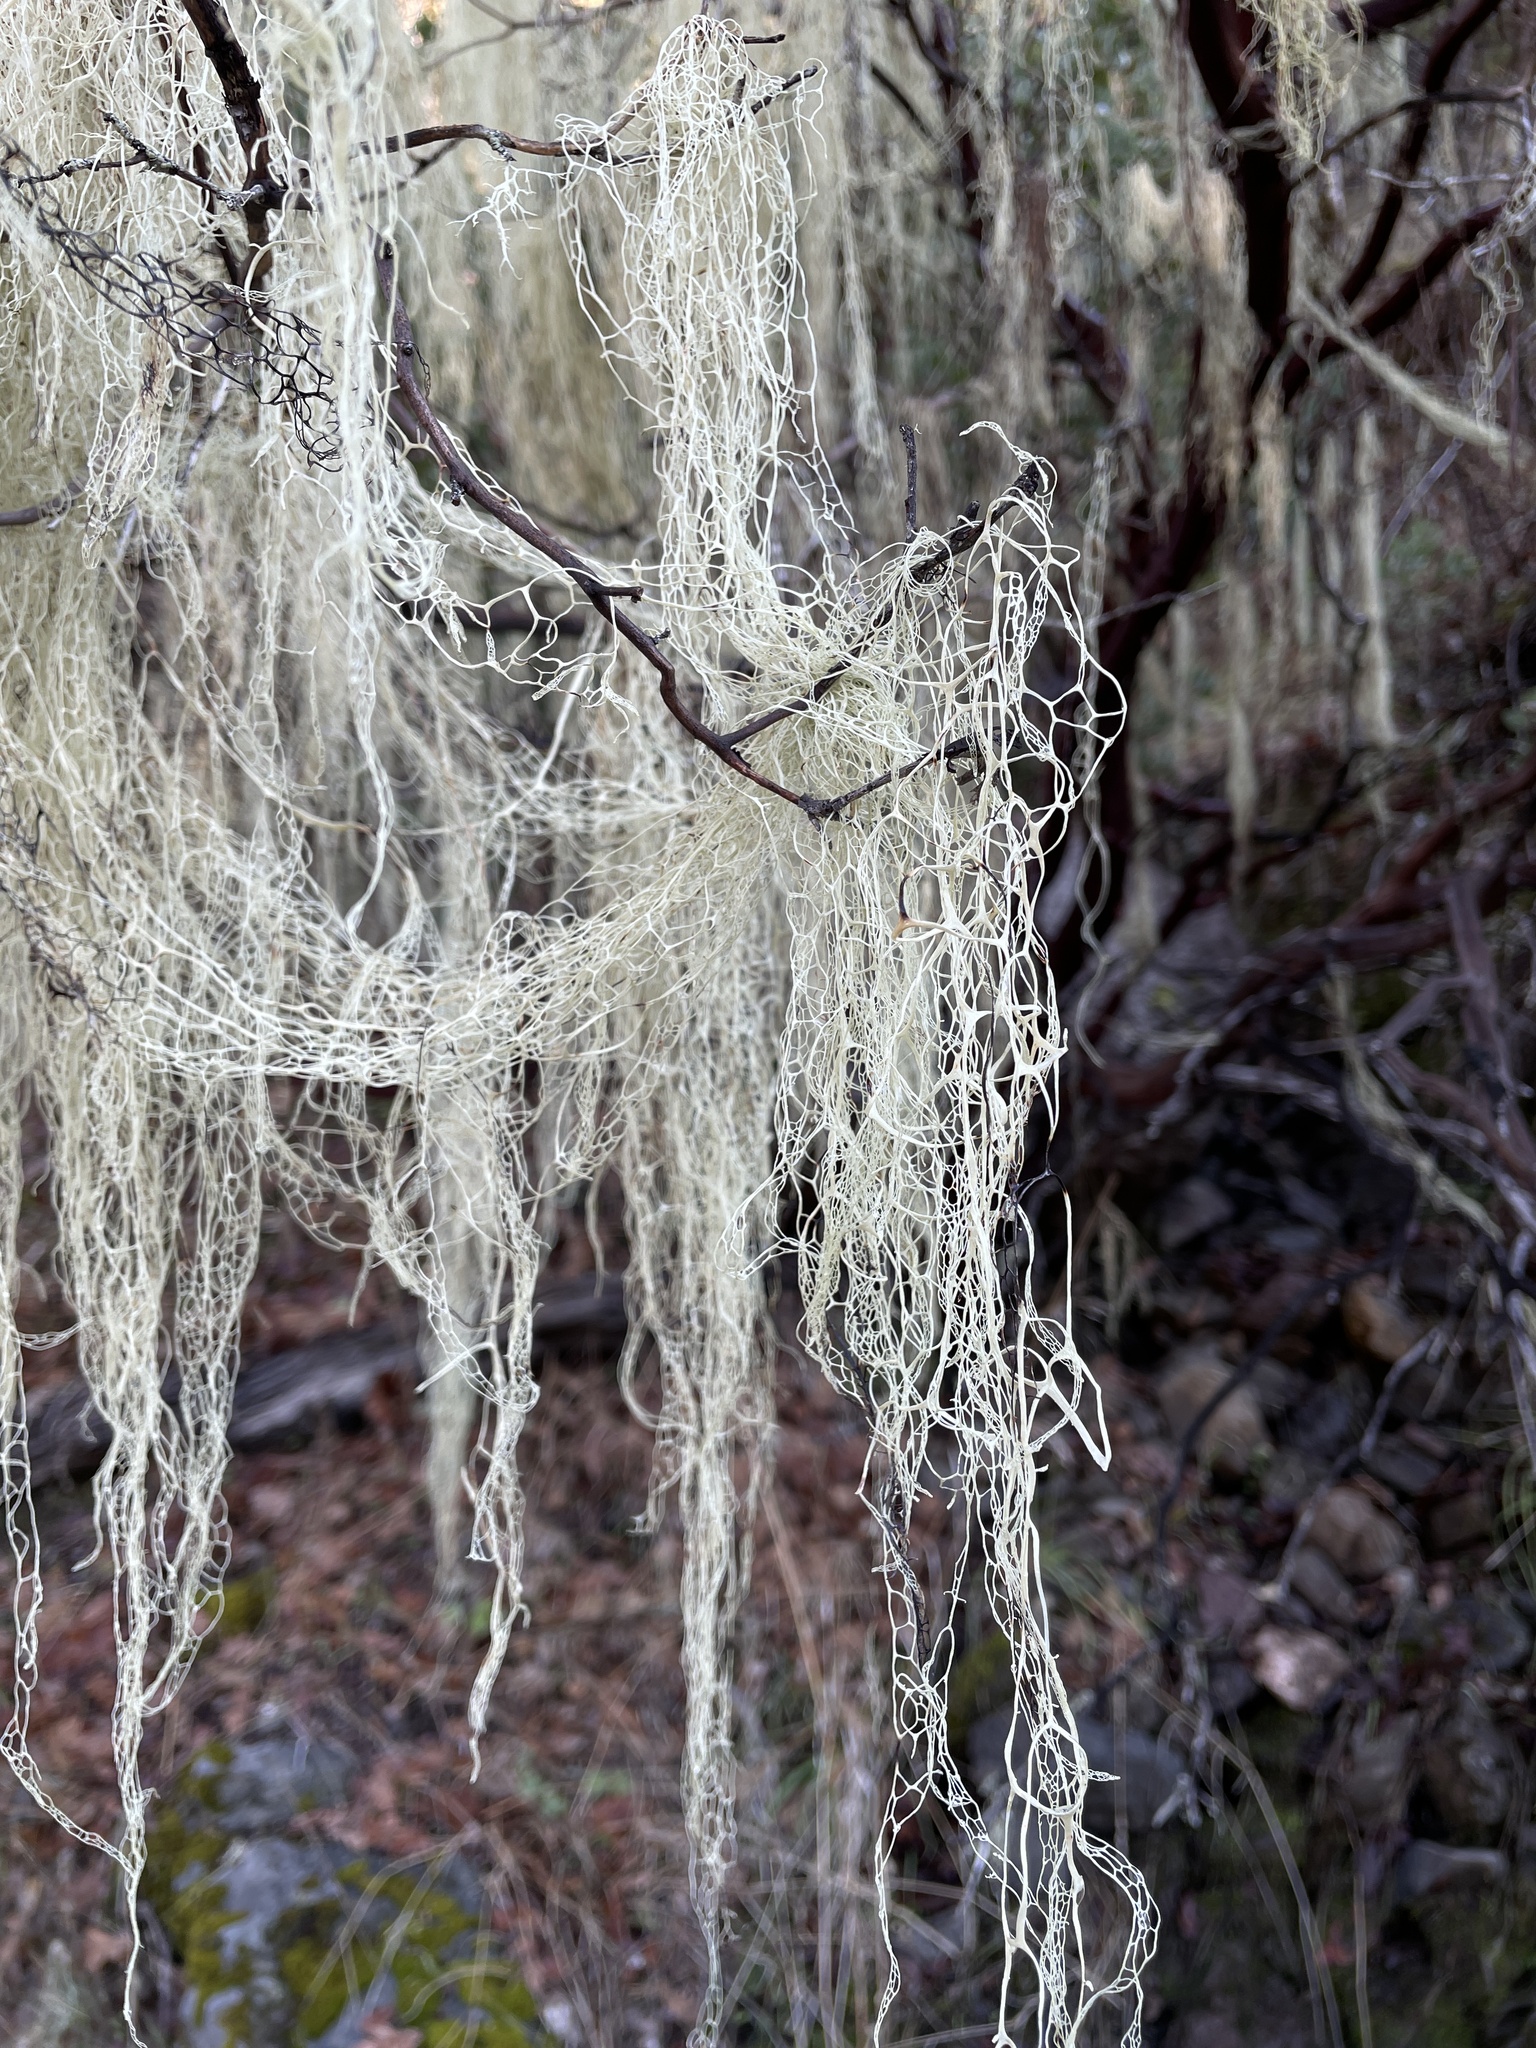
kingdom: Fungi
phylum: Ascomycota
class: Lecanoromycetes
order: Lecanorales
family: Ramalinaceae
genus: Ramalina
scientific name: Ramalina menziesii
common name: Lace lichen
